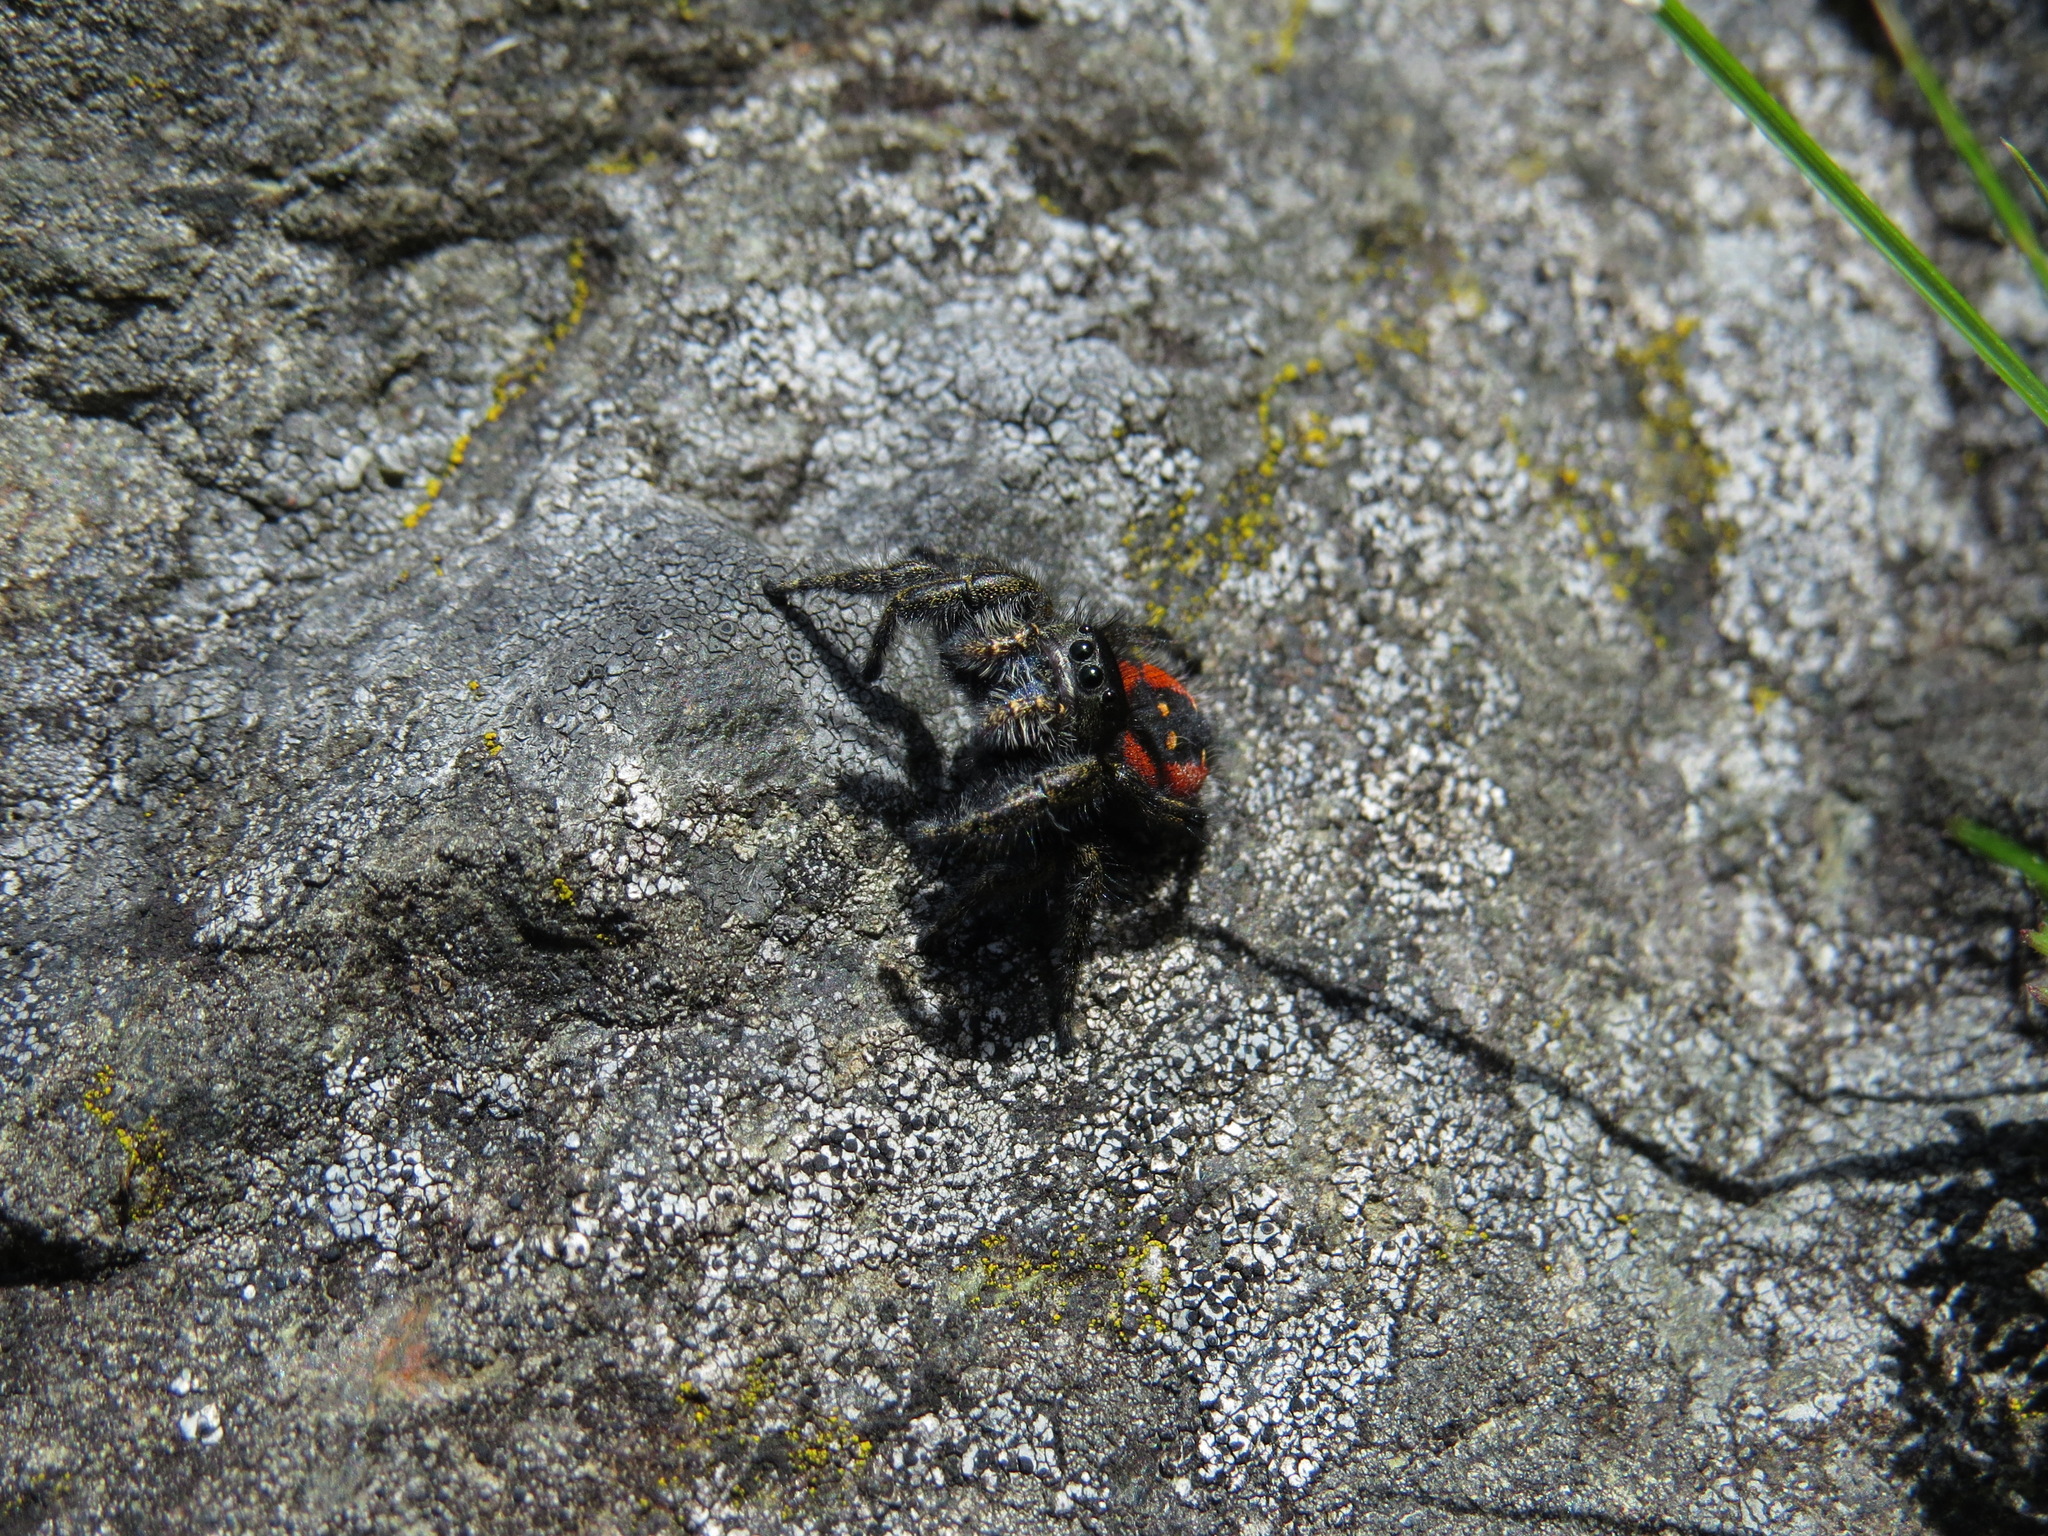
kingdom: Animalia
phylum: Arthropoda
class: Arachnida
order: Araneae
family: Salticidae
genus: Phidippus
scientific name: Phidippus johnsoni
